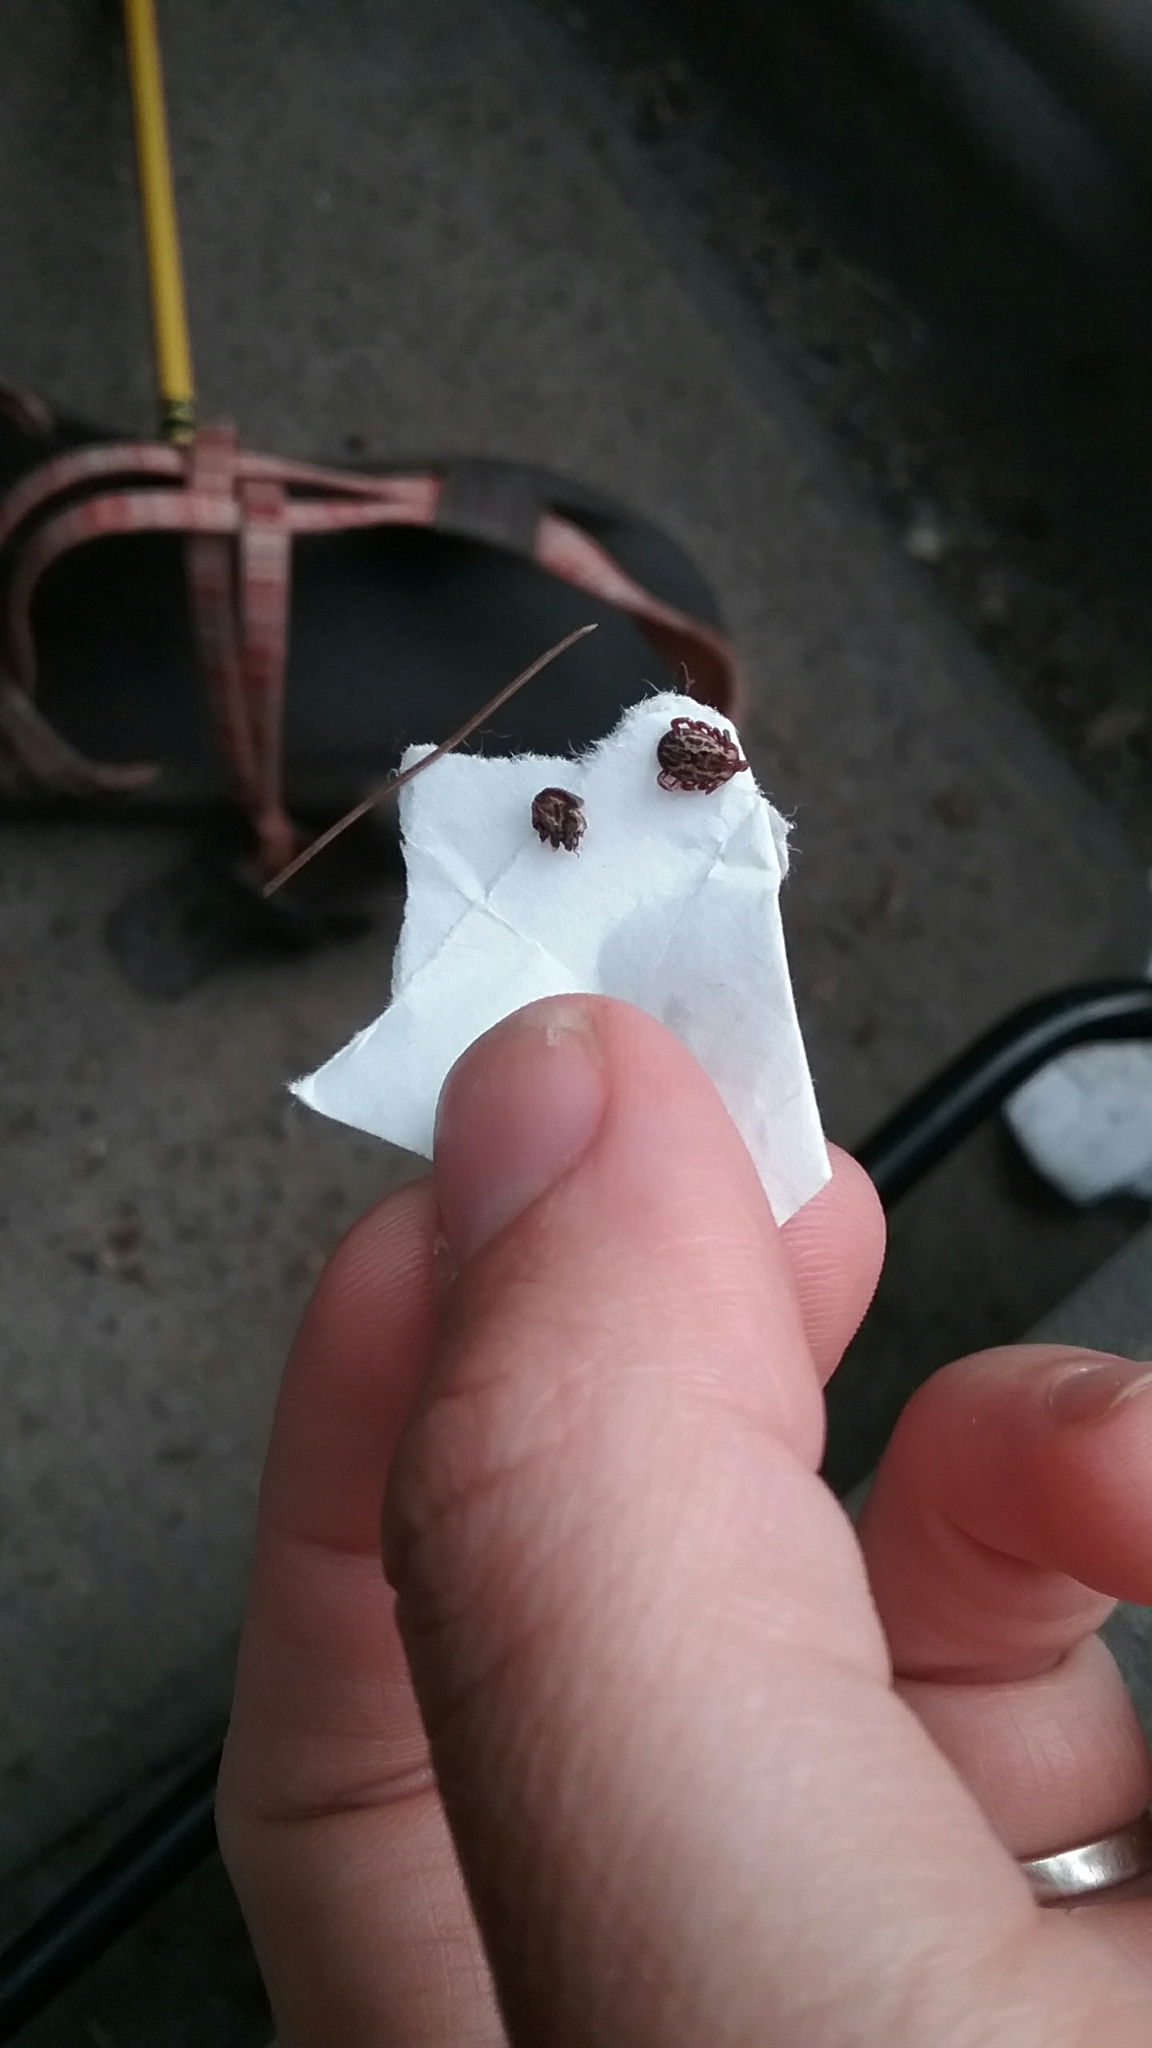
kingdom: Animalia
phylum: Arthropoda
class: Arachnida
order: Ixodida
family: Ixodidae
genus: Dermacentor
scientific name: Dermacentor variabilis
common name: American dog tick
